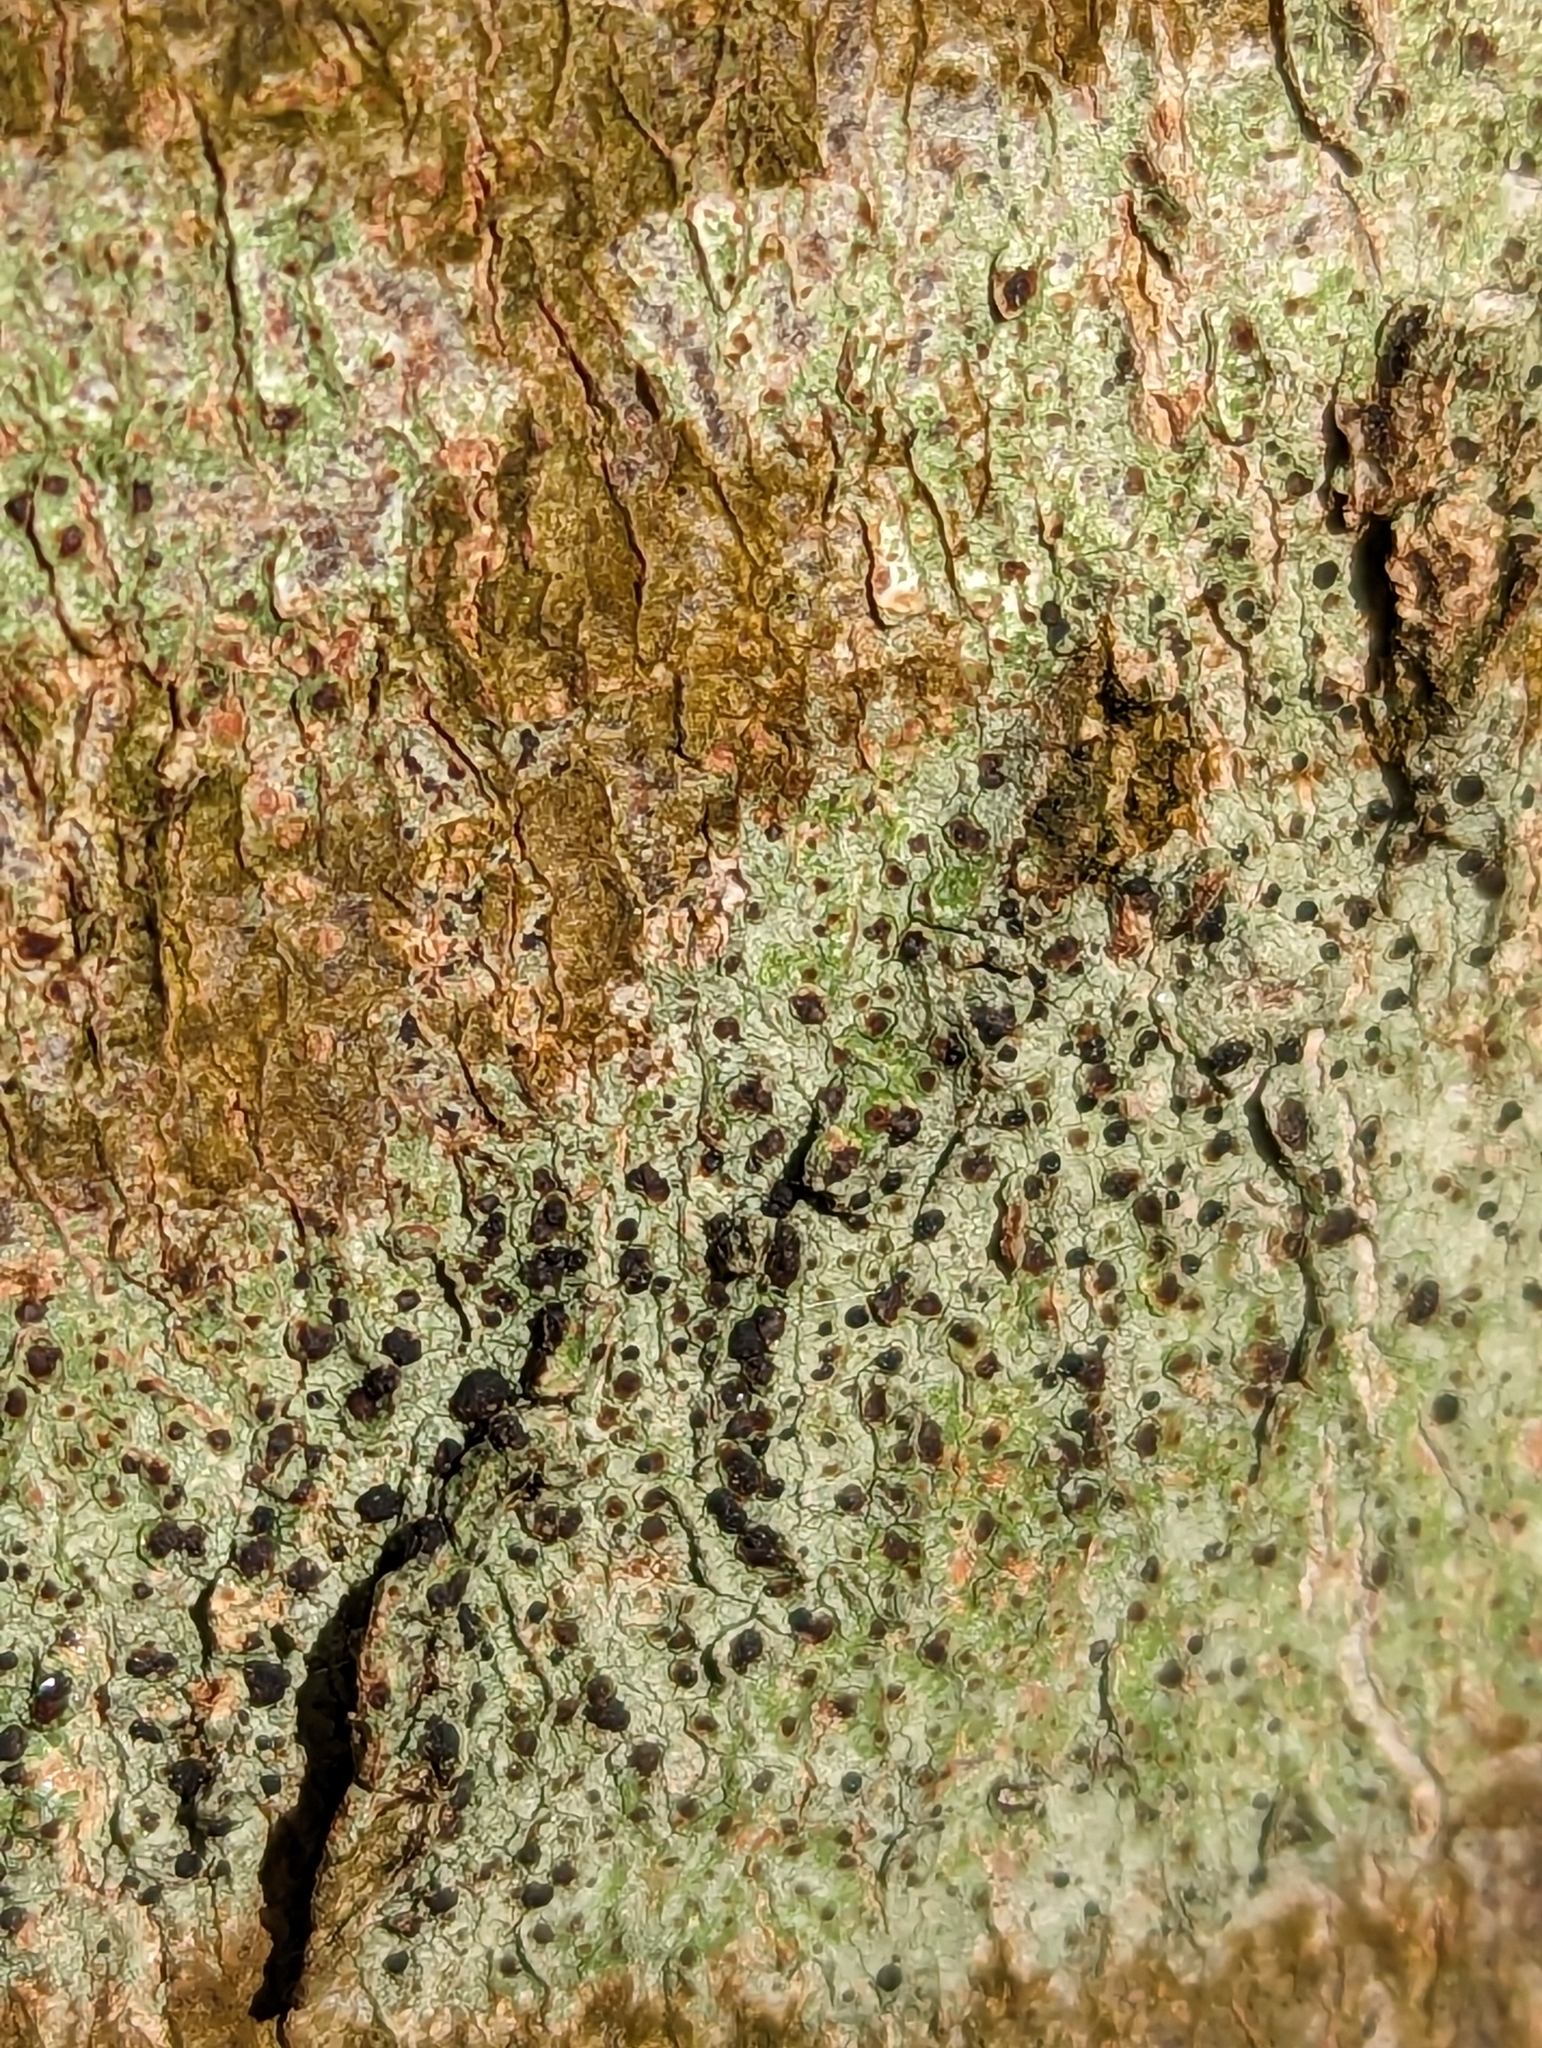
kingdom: Fungi
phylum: Ascomycota
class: Lecanoromycetes
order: Lecanorales
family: Lecanoraceae
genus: Lecidella
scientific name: Lecidella elaeochroma
